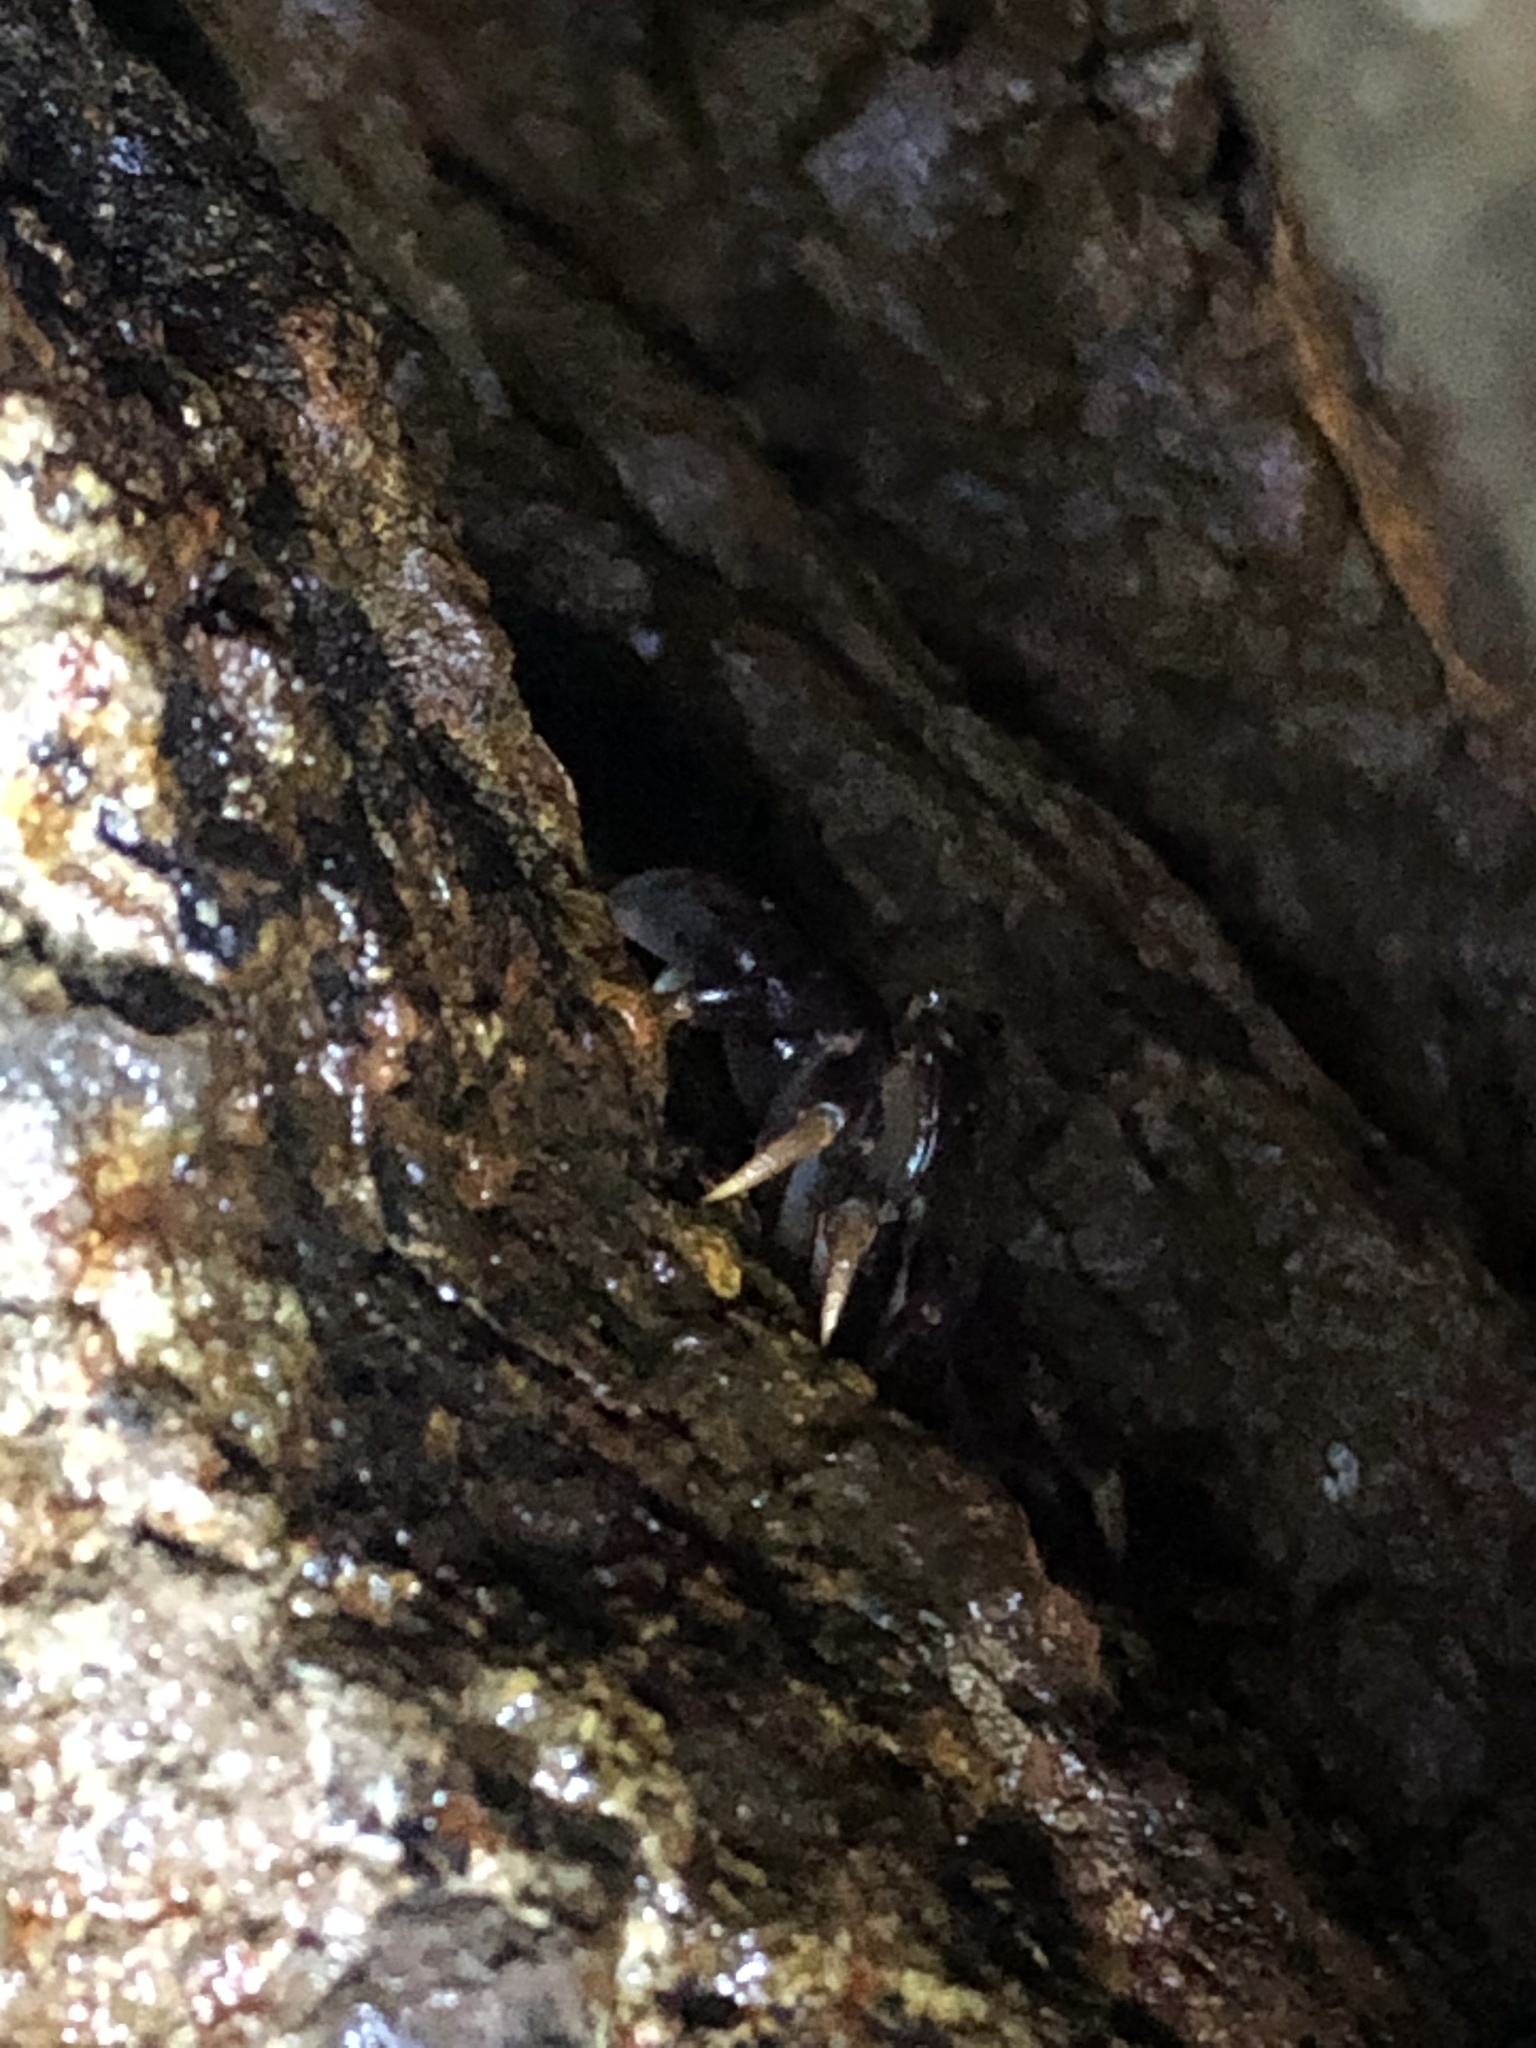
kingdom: Animalia
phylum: Arthropoda
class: Malacostraca
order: Decapoda
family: Varunidae
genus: Hemigrapsus
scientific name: Hemigrapsus nudus
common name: Purple shore crab
